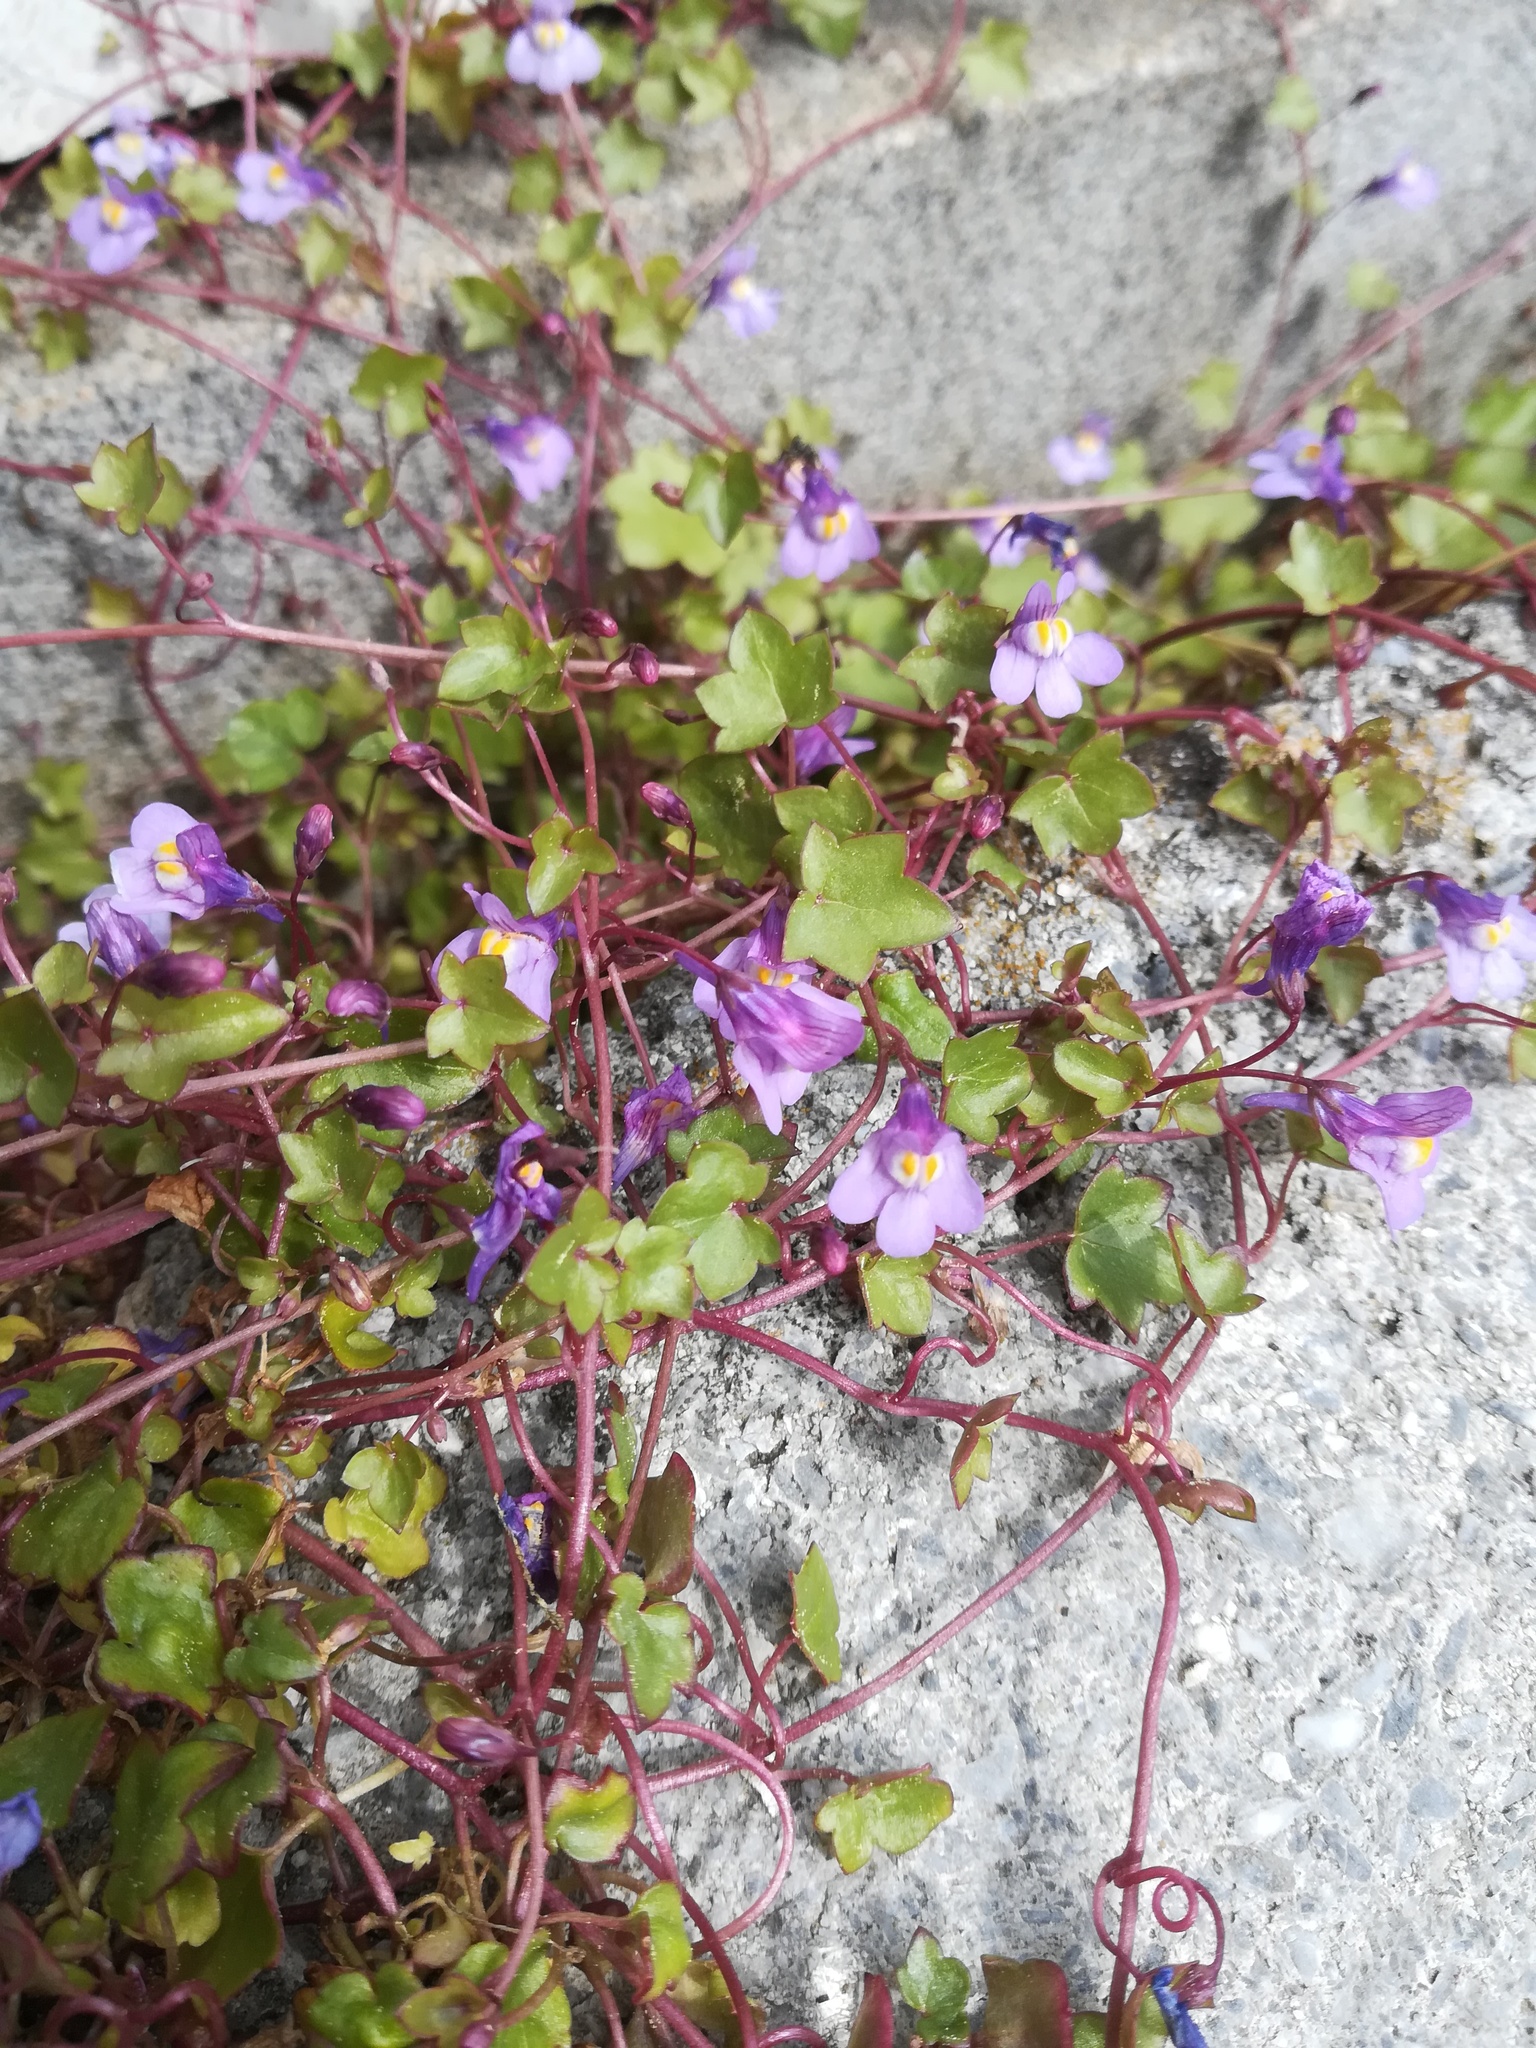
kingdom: Plantae
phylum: Tracheophyta
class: Magnoliopsida
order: Lamiales
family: Plantaginaceae
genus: Cymbalaria
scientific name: Cymbalaria muralis
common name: Ivy-leaved toadflax
